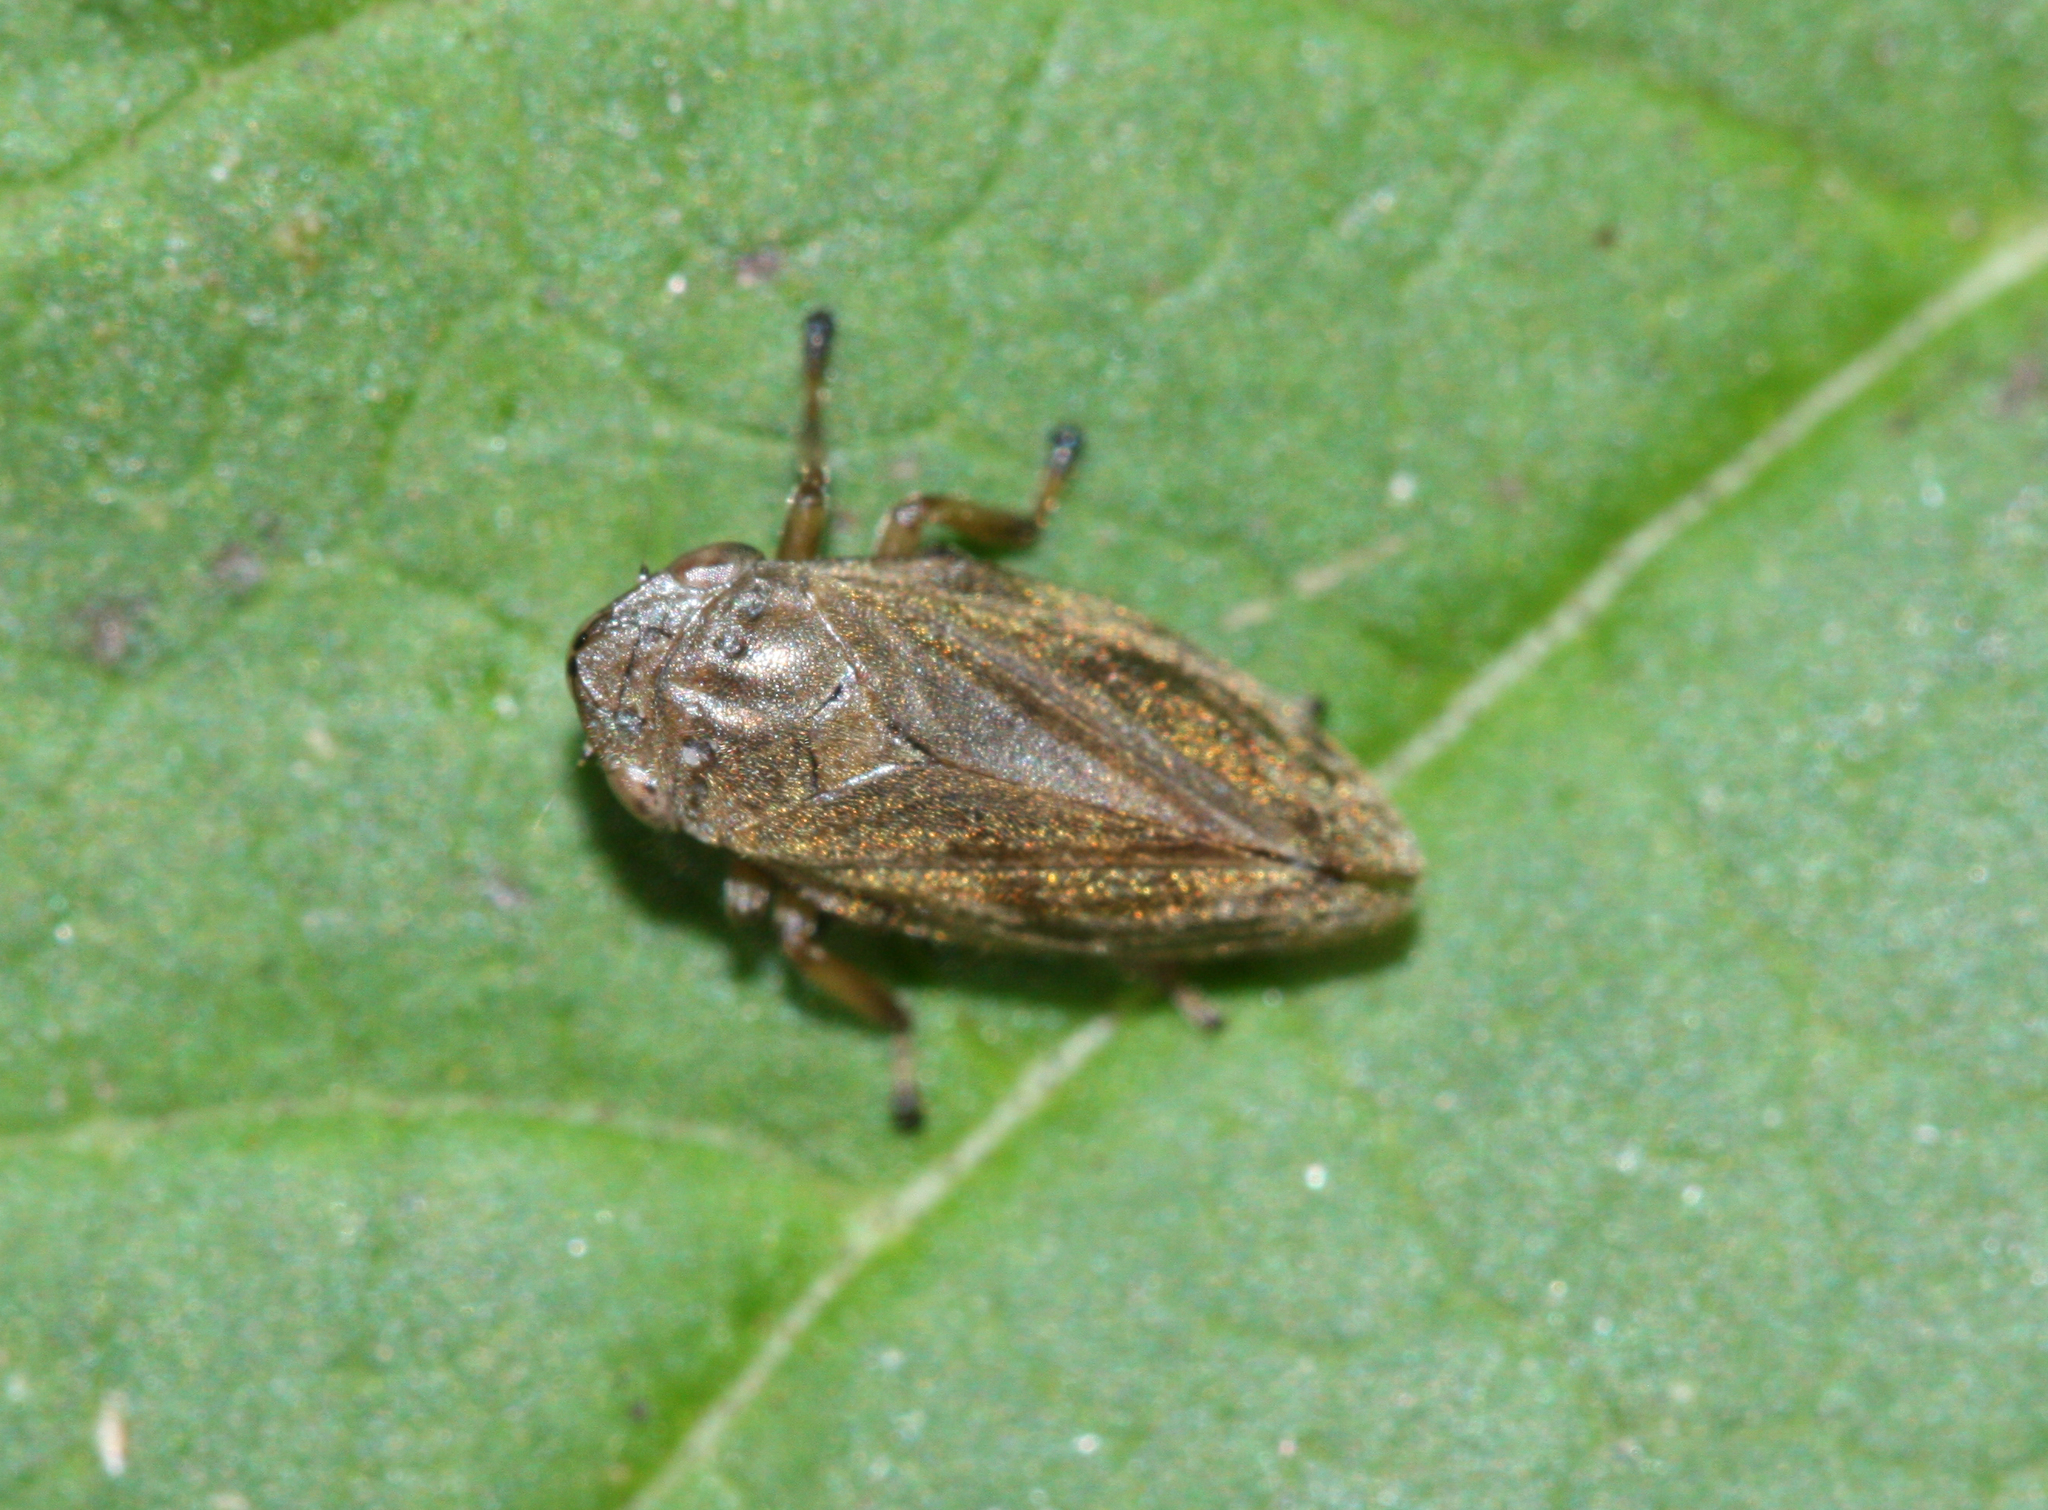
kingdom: Animalia
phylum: Arthropoda
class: Insecta
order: Hemiptera
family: Aphrophoridae
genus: Philaenus
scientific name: Philaenus spumarius
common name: Meadow spittlebug
